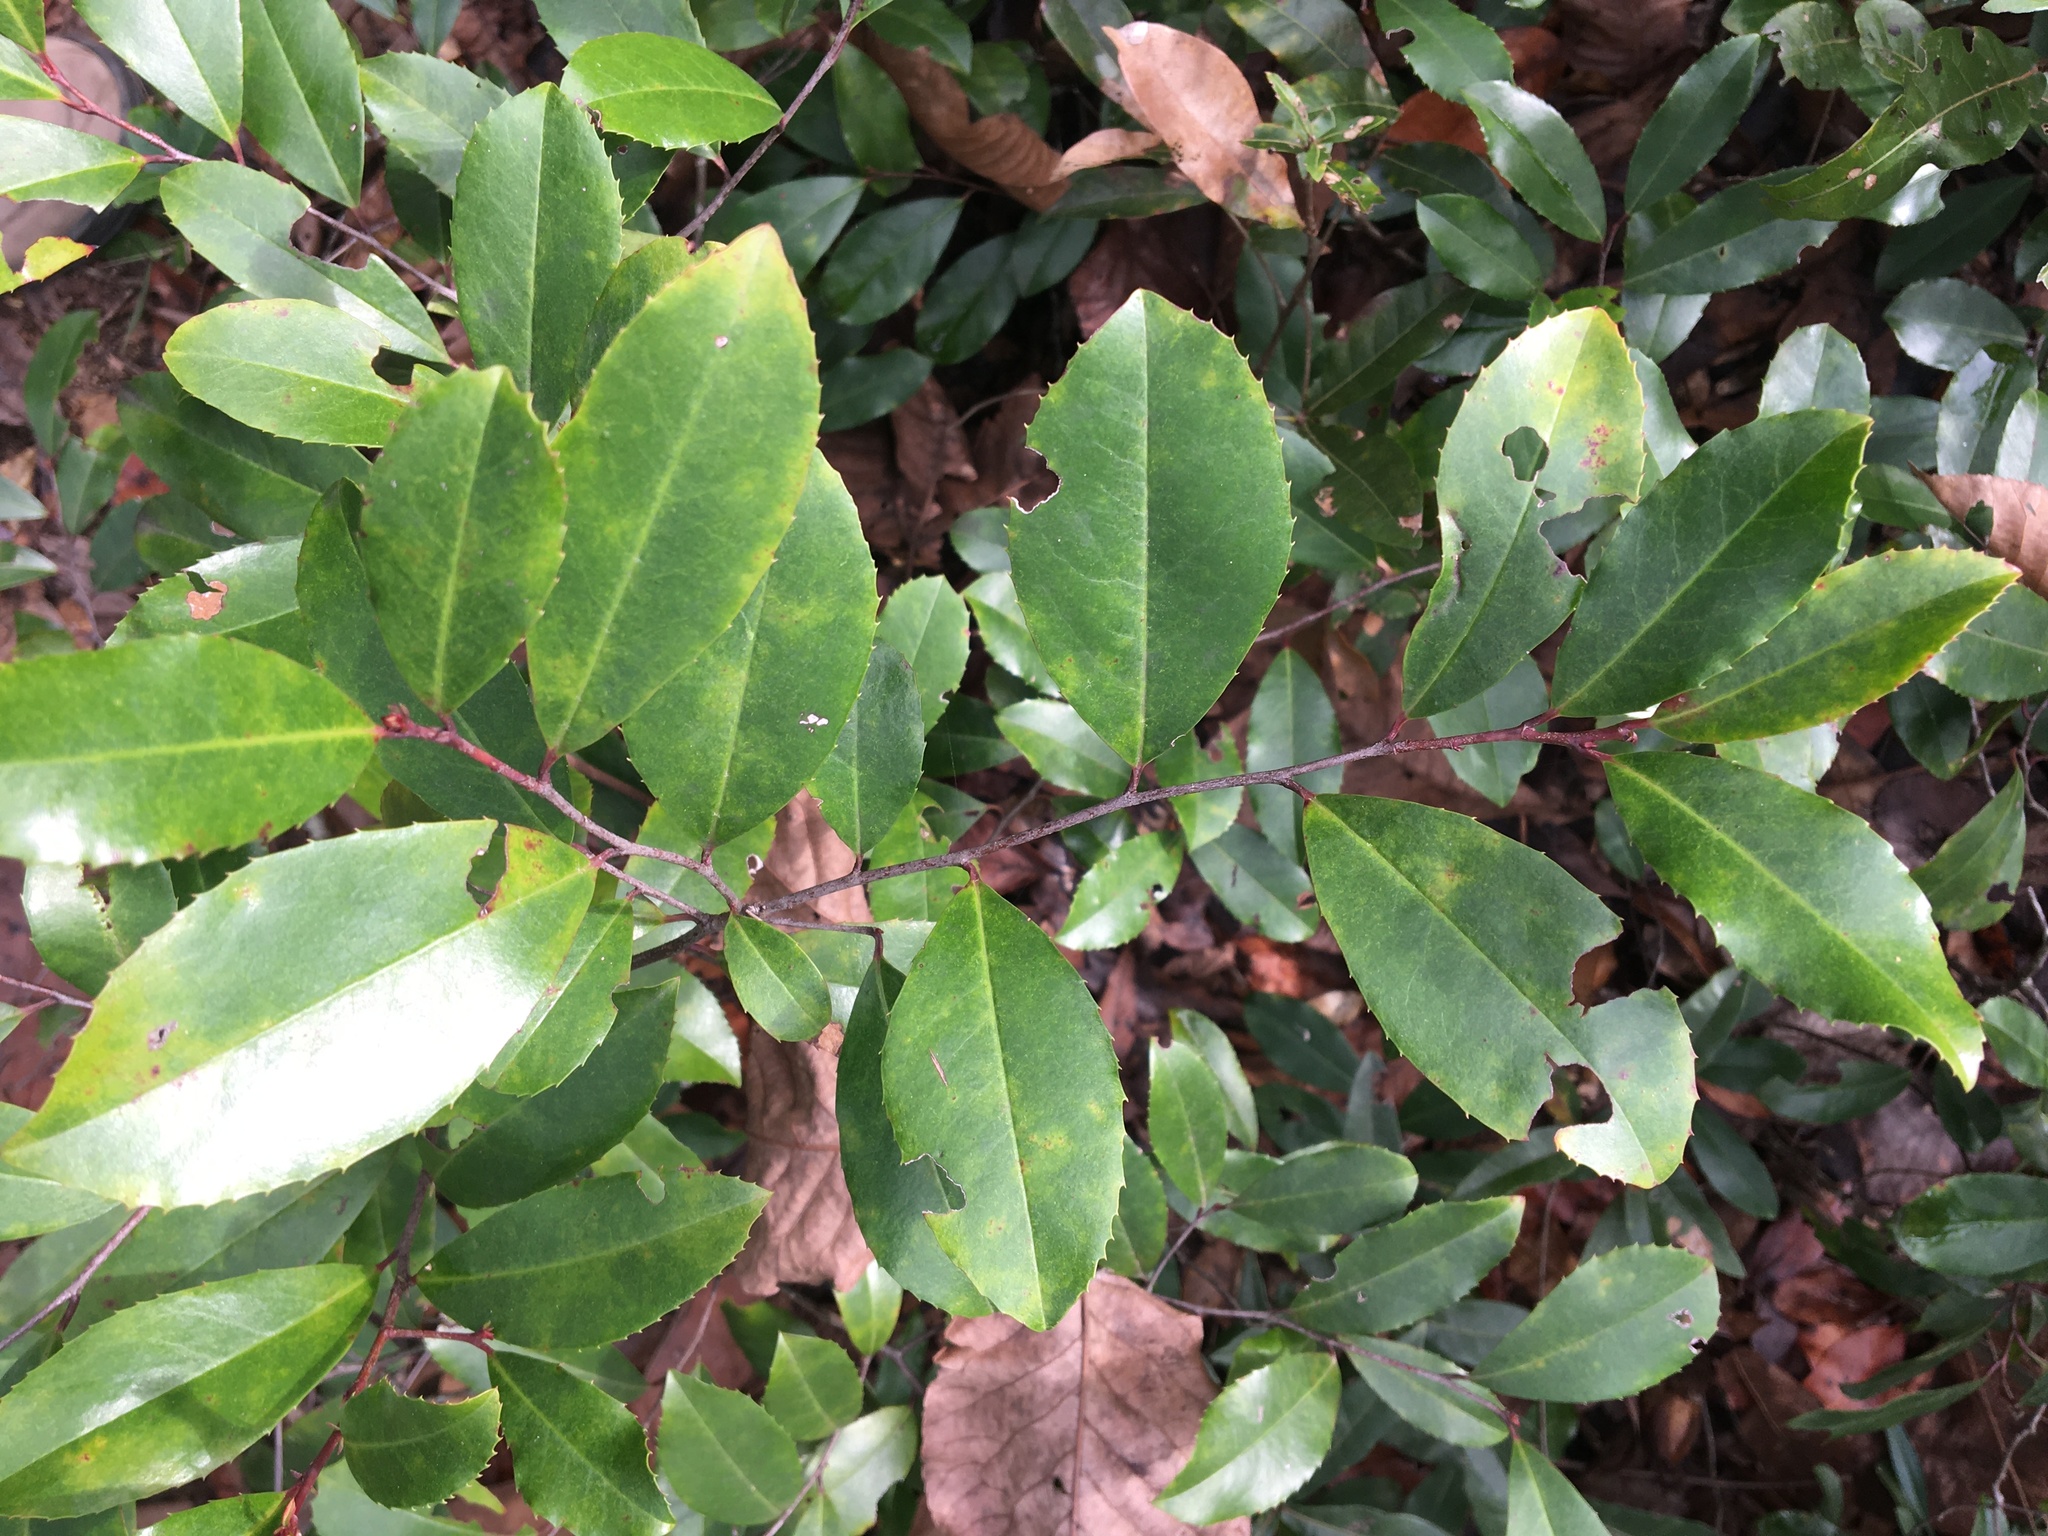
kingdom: Plantae
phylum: Tracheophyta
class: Magnoliopsida
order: Rosales
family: Rosaceae
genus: Prunus
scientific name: Prunus caroliniana
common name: Carolina laurel cherry
